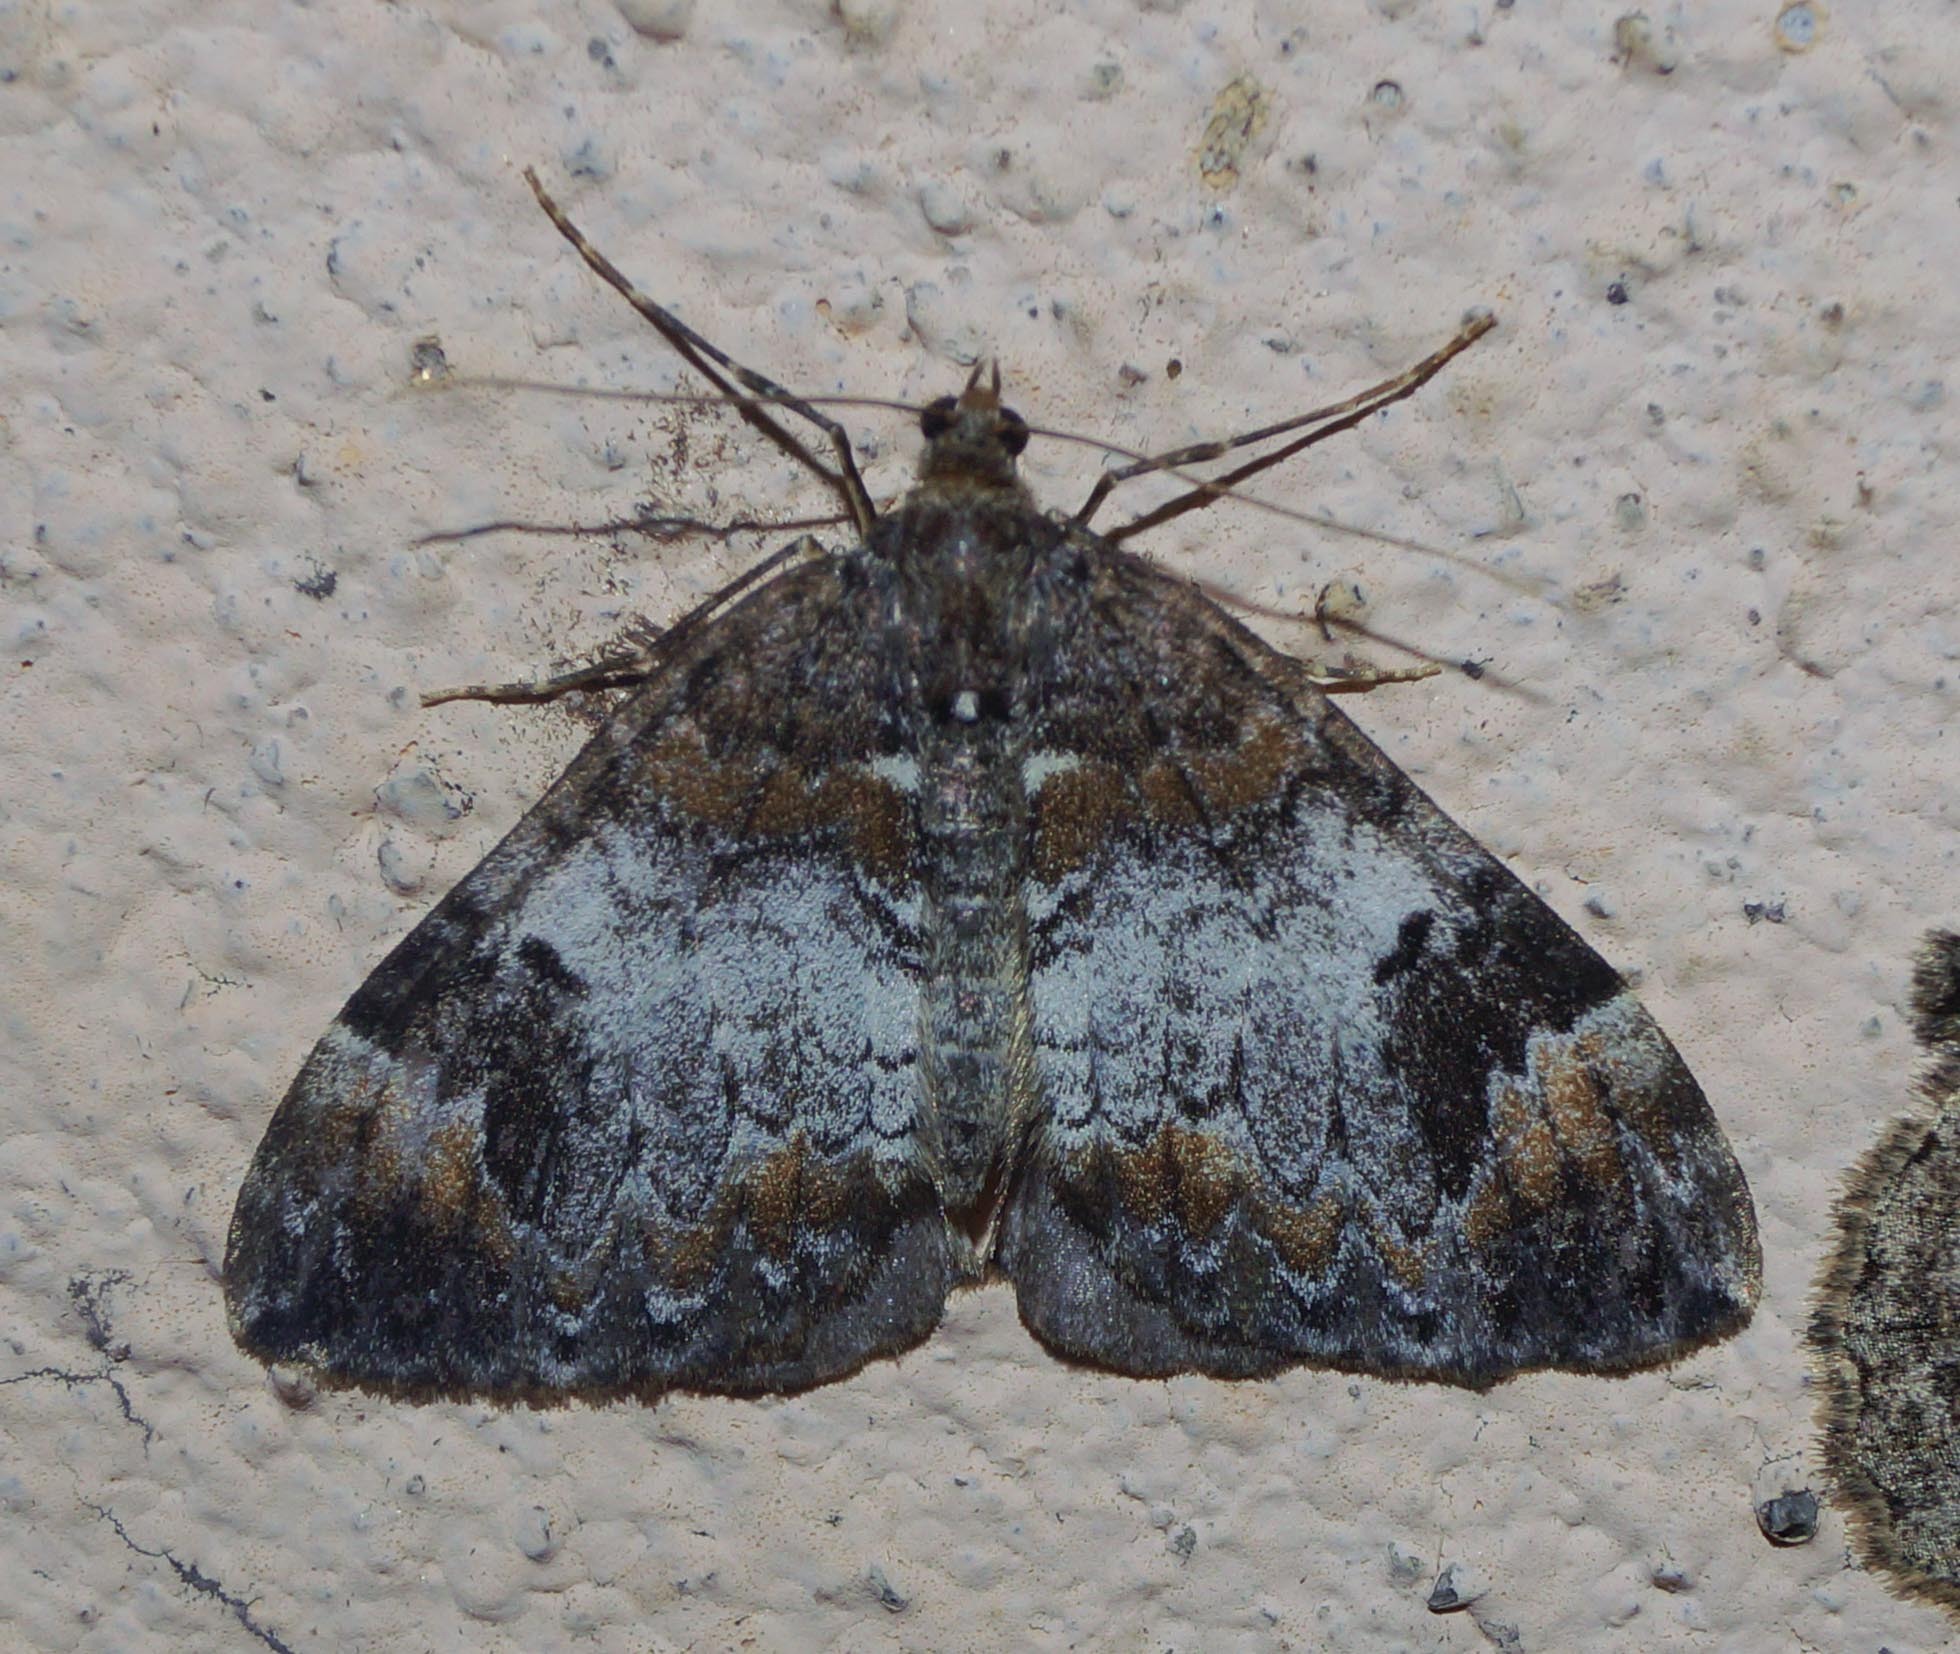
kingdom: Animalia
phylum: Arthropoda
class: Insecta
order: Lepidoptera
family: Geometridae
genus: Dysstroma
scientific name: Dysstroma truncata
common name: Common marbled carpet
